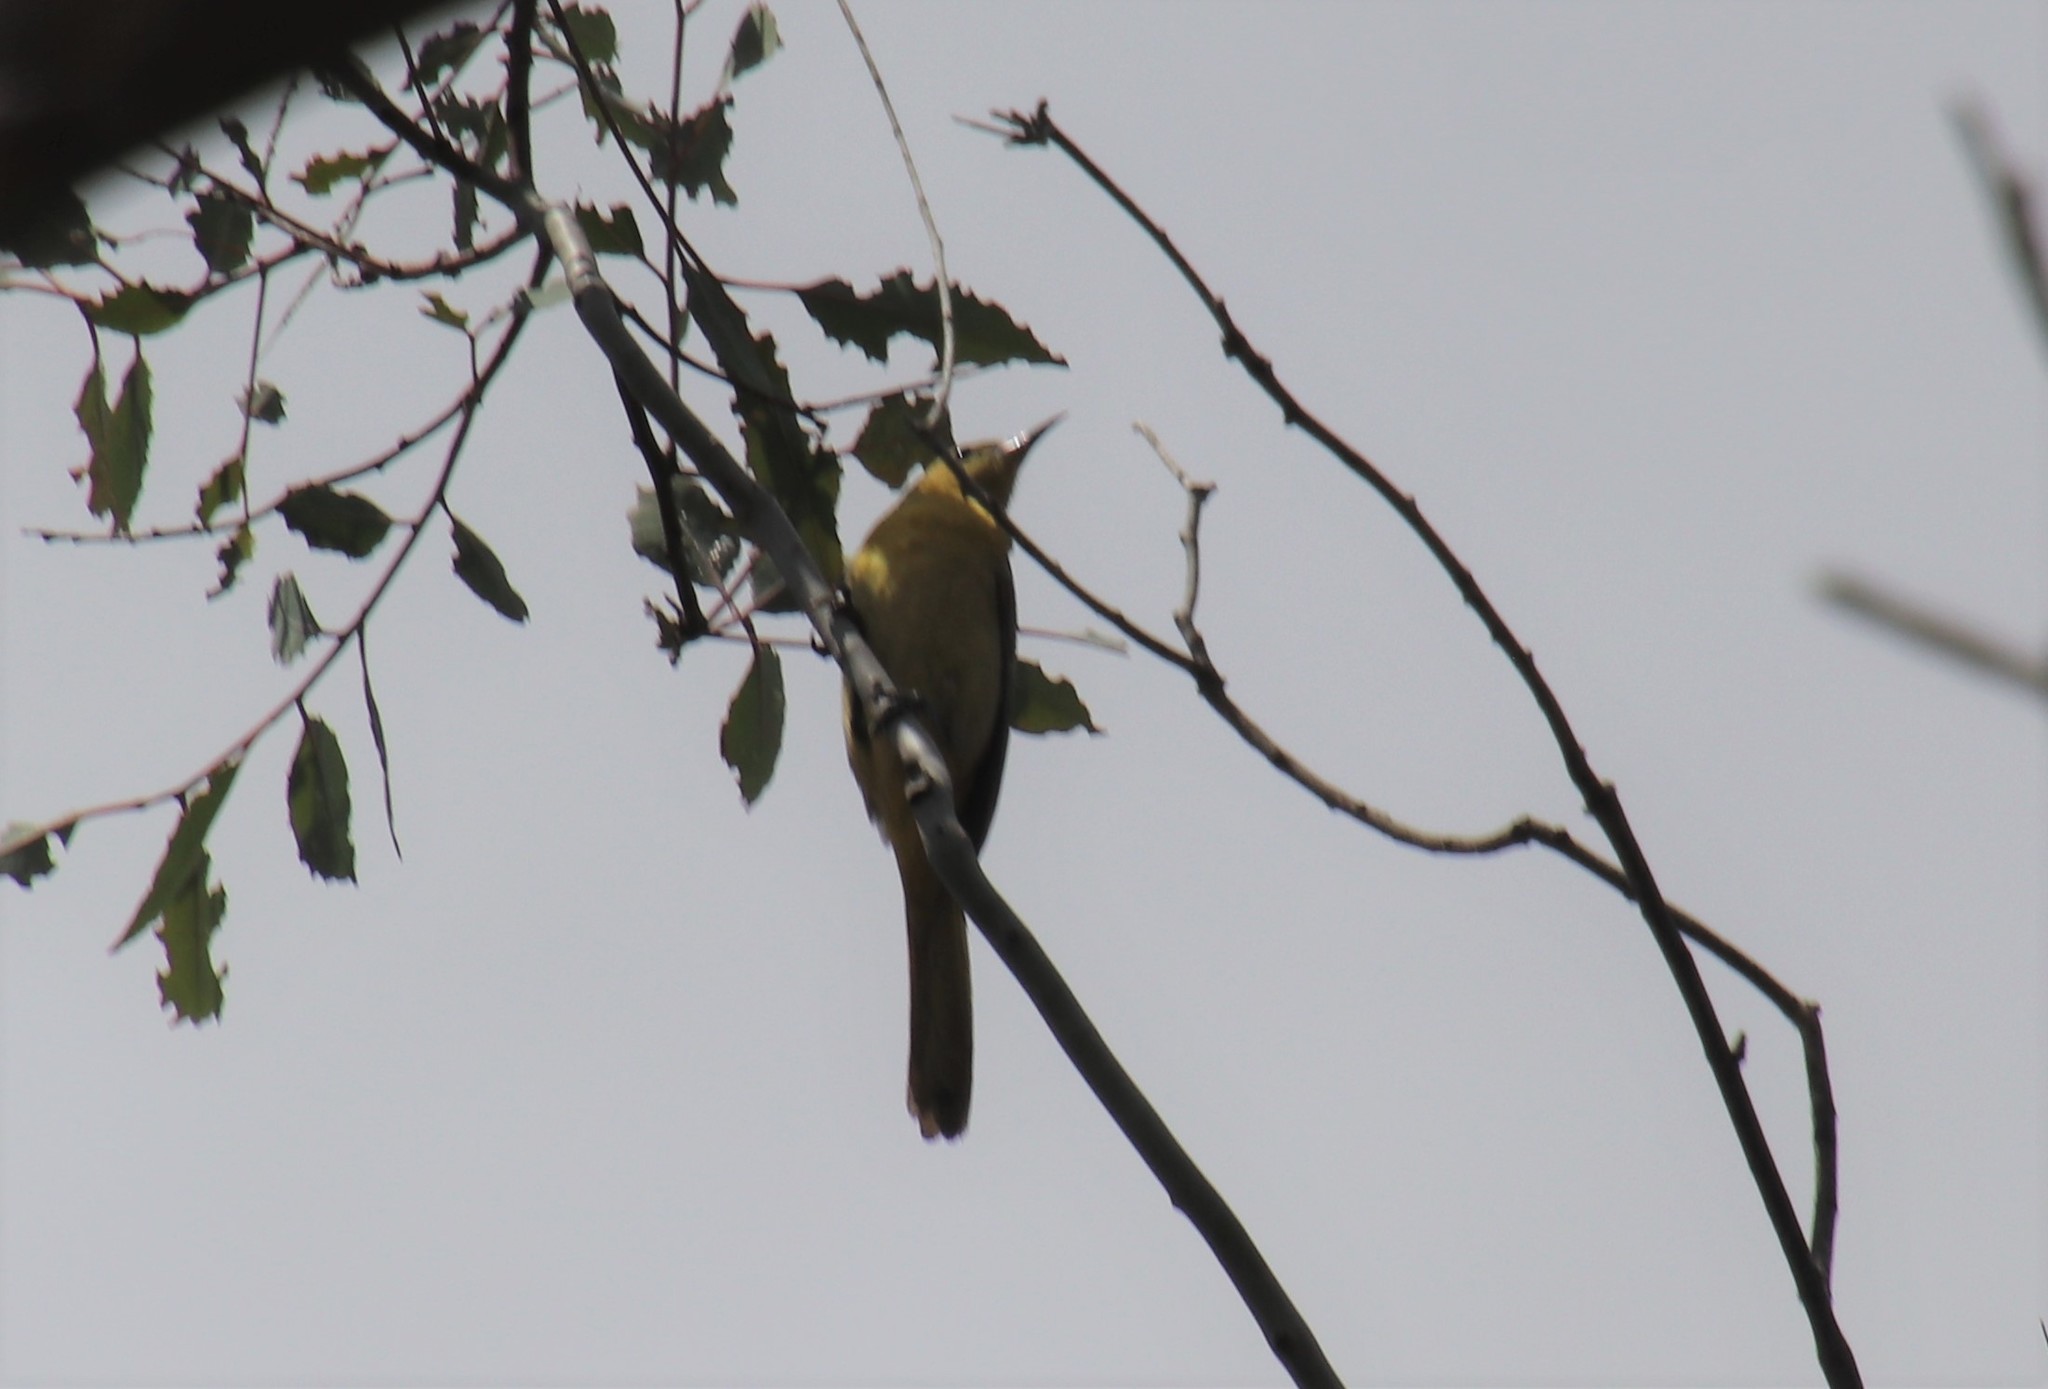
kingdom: Animalia
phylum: Chordata
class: Aves
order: Passeriformes
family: Icteridae
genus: Icterus
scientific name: Icterus cucullatus
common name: Hooded oriole
